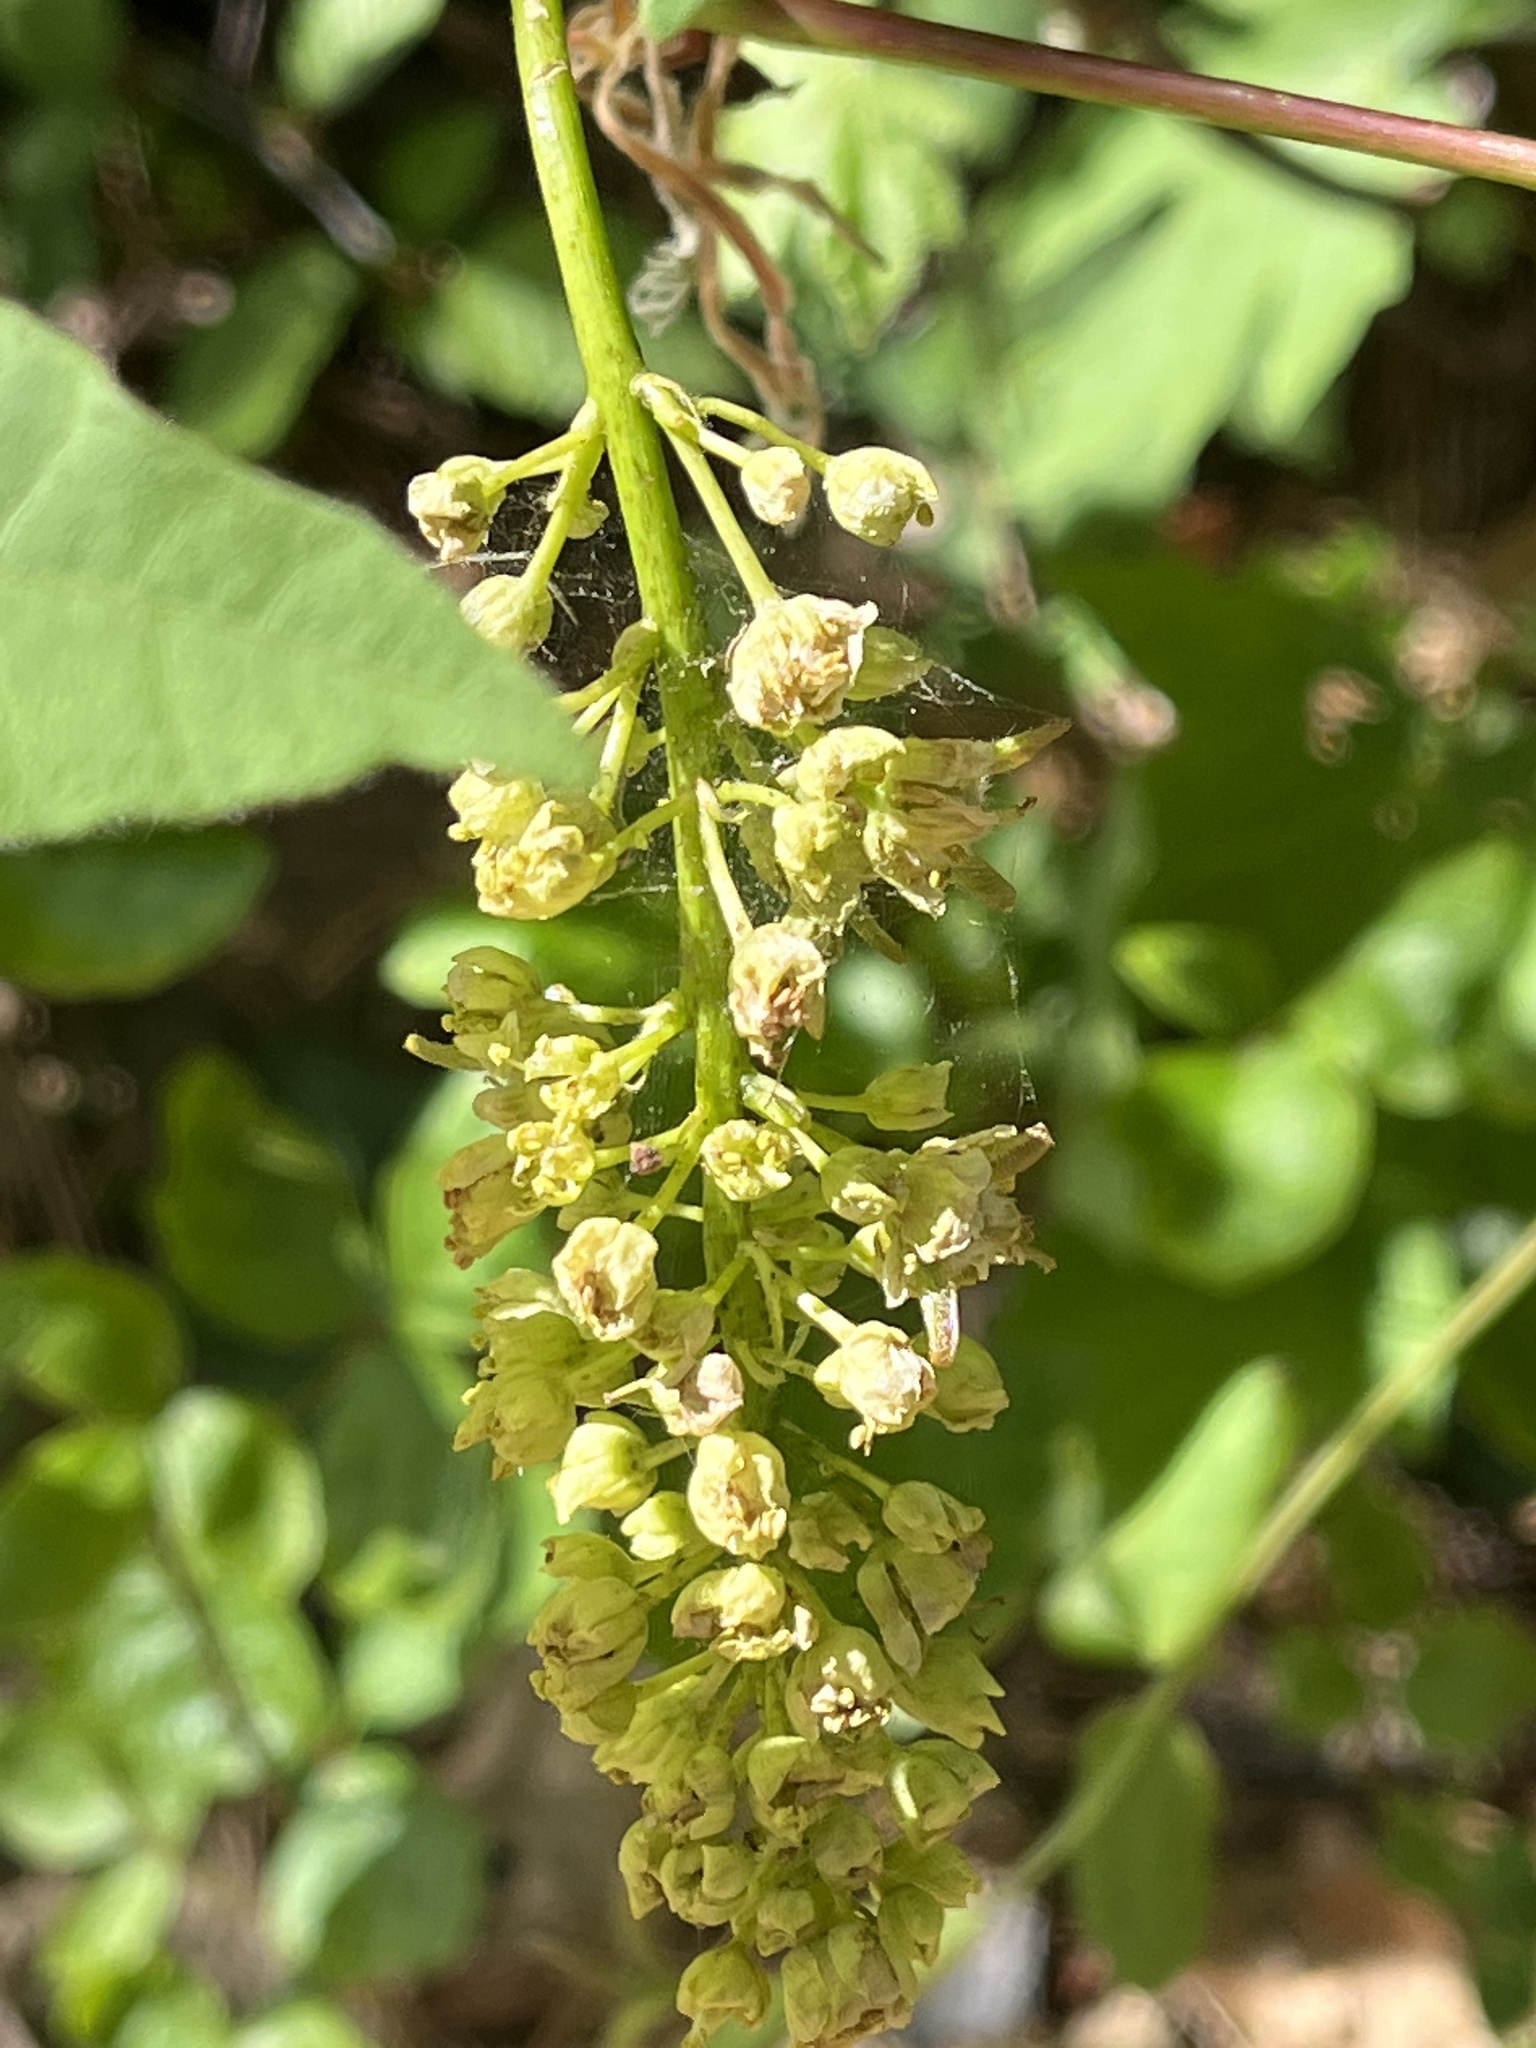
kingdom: Plantae
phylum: Tracheophyta
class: Magnoliopsida
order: Sapindales
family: Sapindaceae
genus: Acer
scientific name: Acer macrophyllum
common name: Oregon maple
